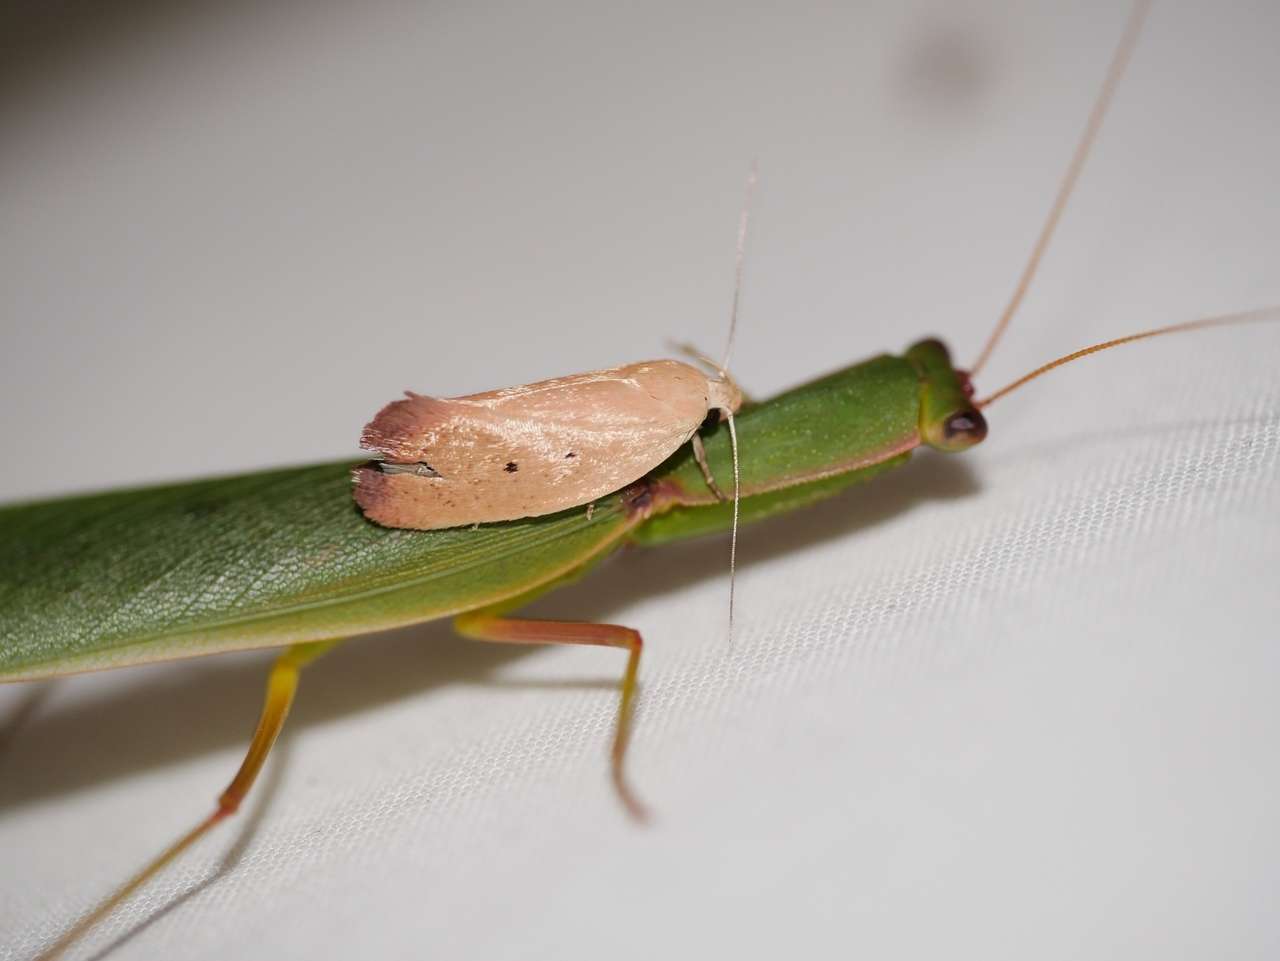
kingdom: Animalia
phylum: Arthropoda
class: Insecta
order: Lepidoptera
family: Oecophoridae
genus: Acanthodela
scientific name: Acanthodela protophaes
